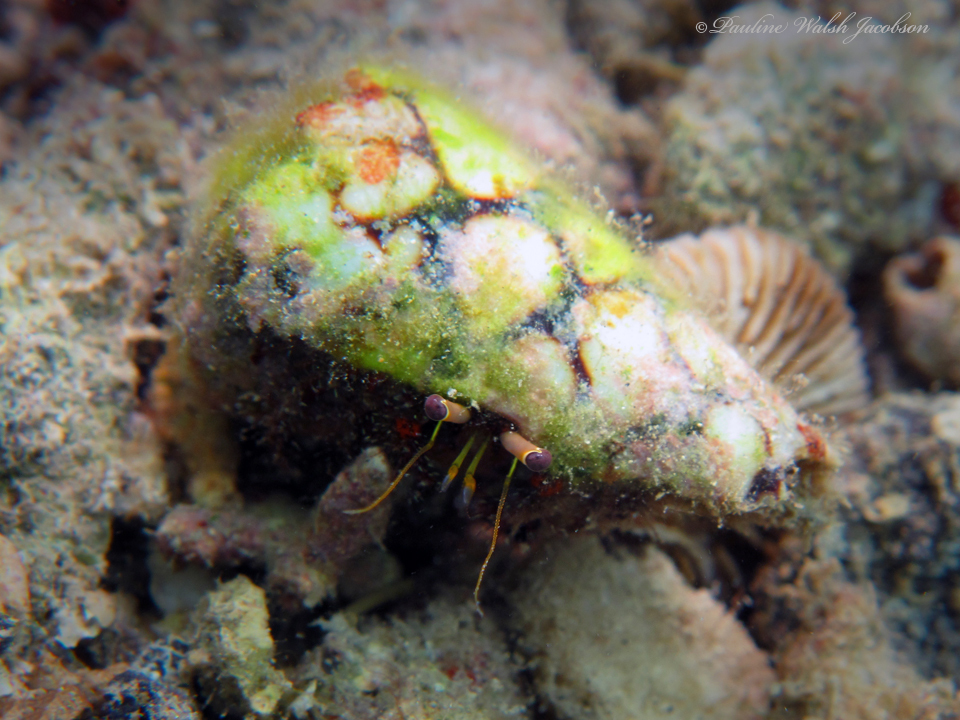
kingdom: Animalia
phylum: Arthropoda
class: Malacostraca
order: Decapoda
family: Diogenidae
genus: Dardanus
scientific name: Dardanus sanguinolentus
